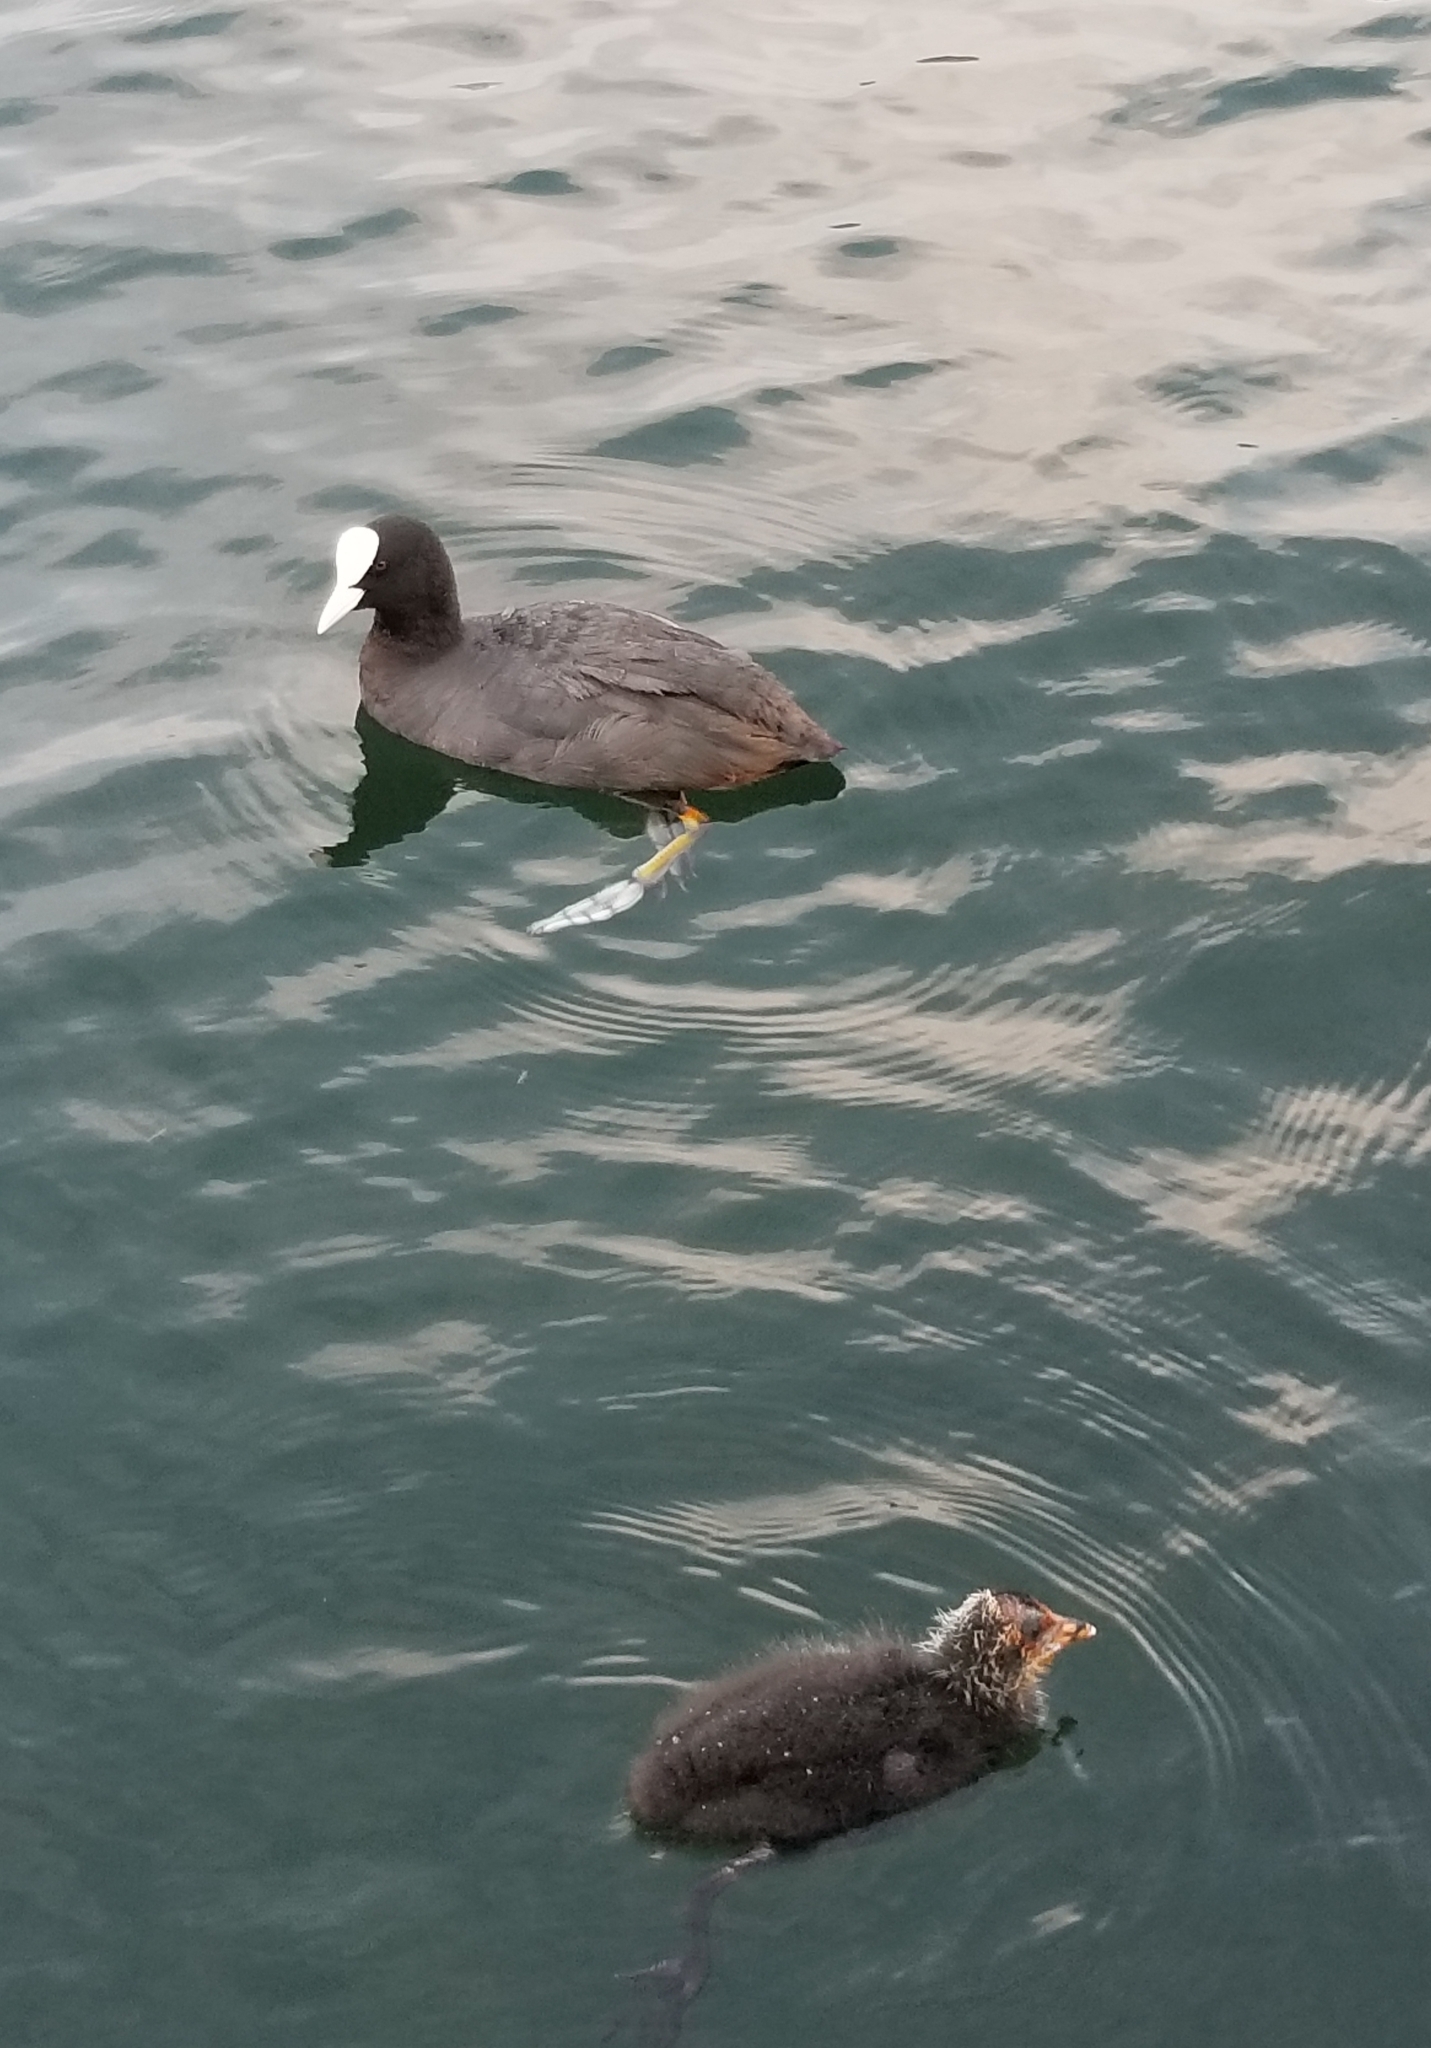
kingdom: Animalia
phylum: Chordata
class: Aves
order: Gruiformes
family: Rallidae
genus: Fulica
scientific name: Fulica atra
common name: Eurasian coot
